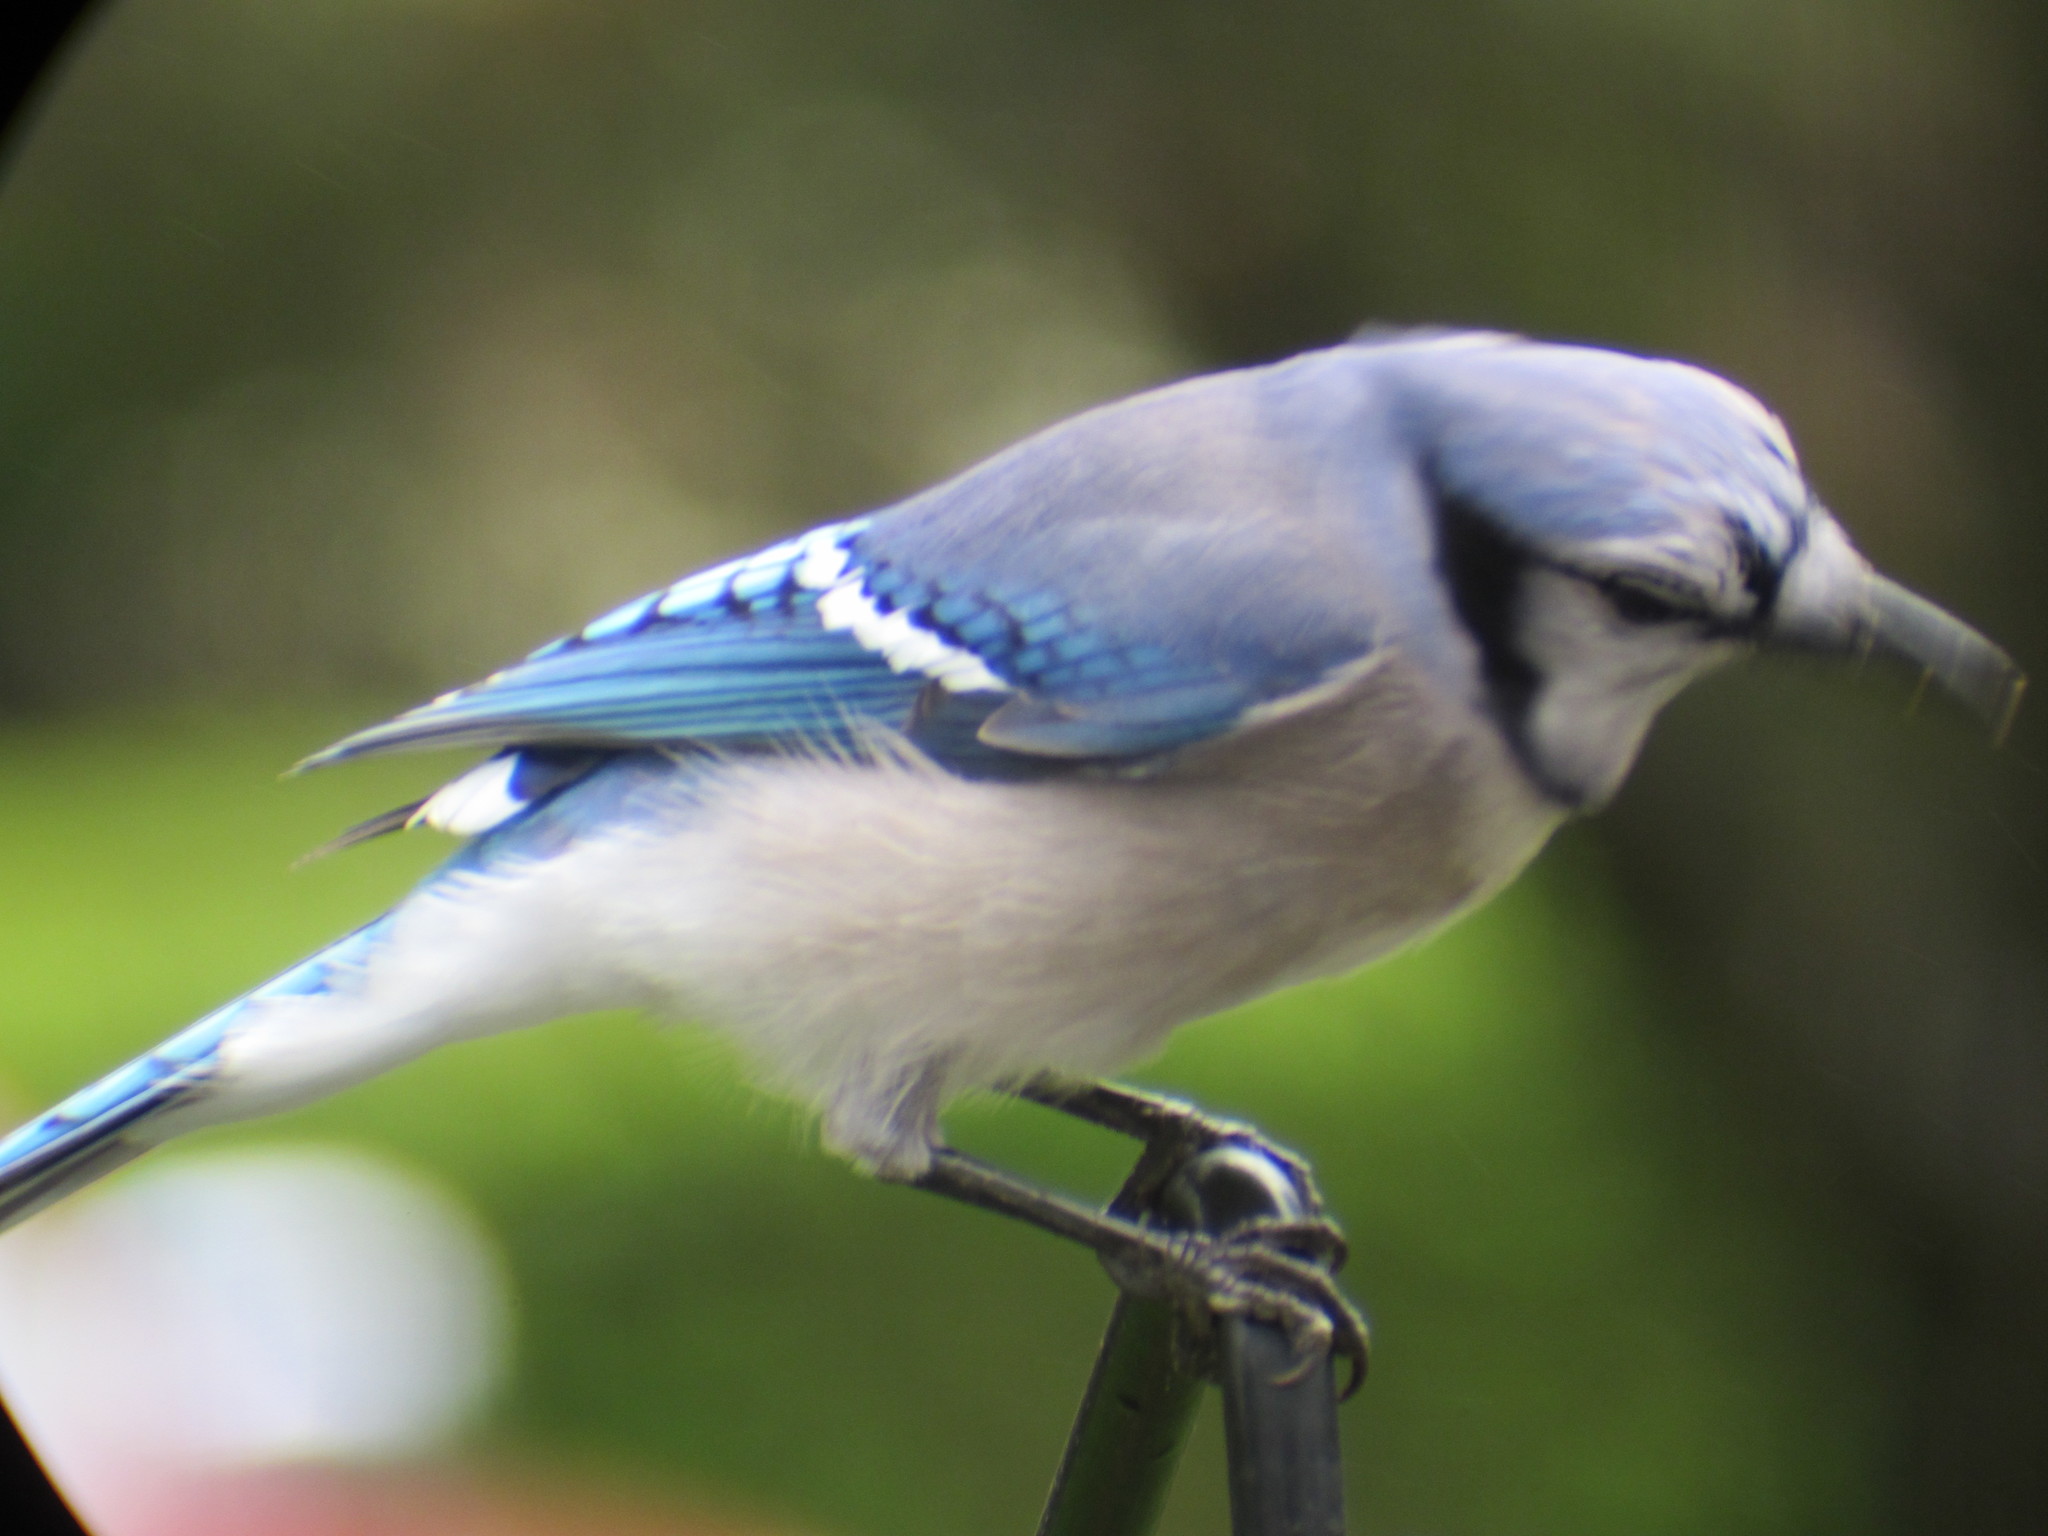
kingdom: Animalia
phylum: Chordata
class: Aves
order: Passeriformes
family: Corvidae
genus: Cyanocitta
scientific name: Cyanocitta cristata
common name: Blue jay
